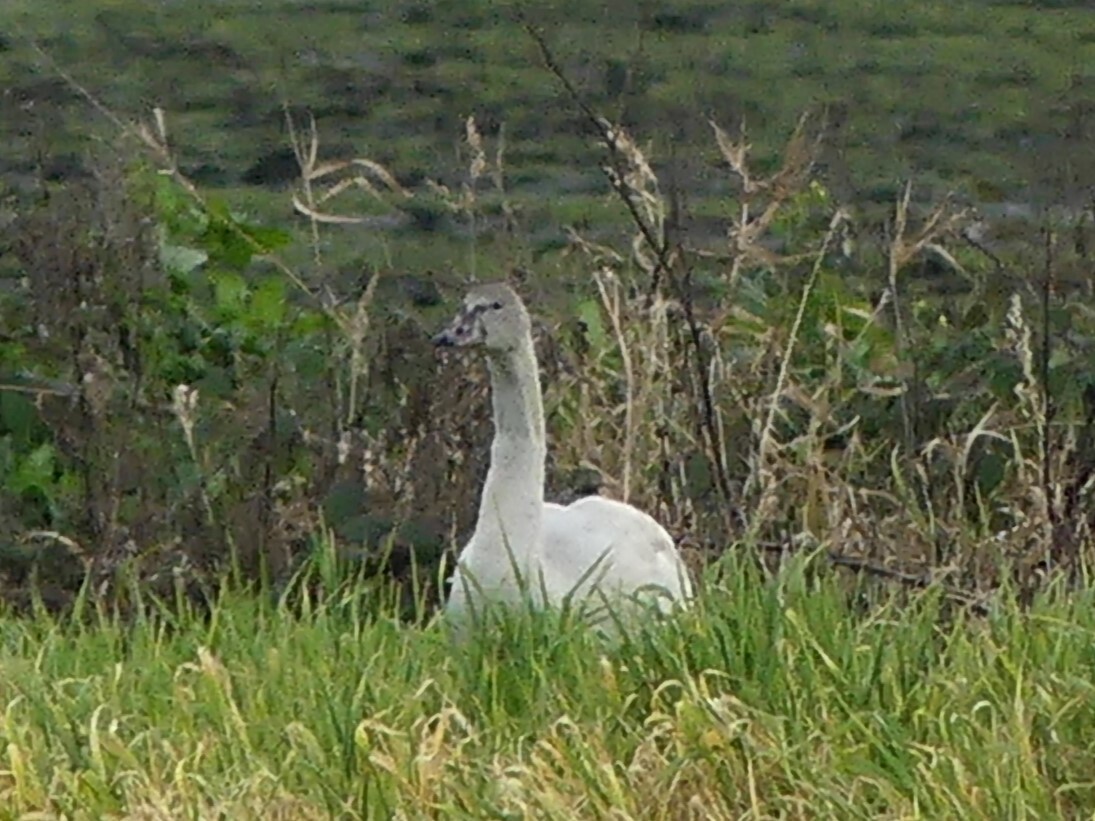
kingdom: Animalia
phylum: Chordata
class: Aves
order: Anseriformes
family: Anatidae
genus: Cygnus
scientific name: Cygnus columbianus
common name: Tundra swan
